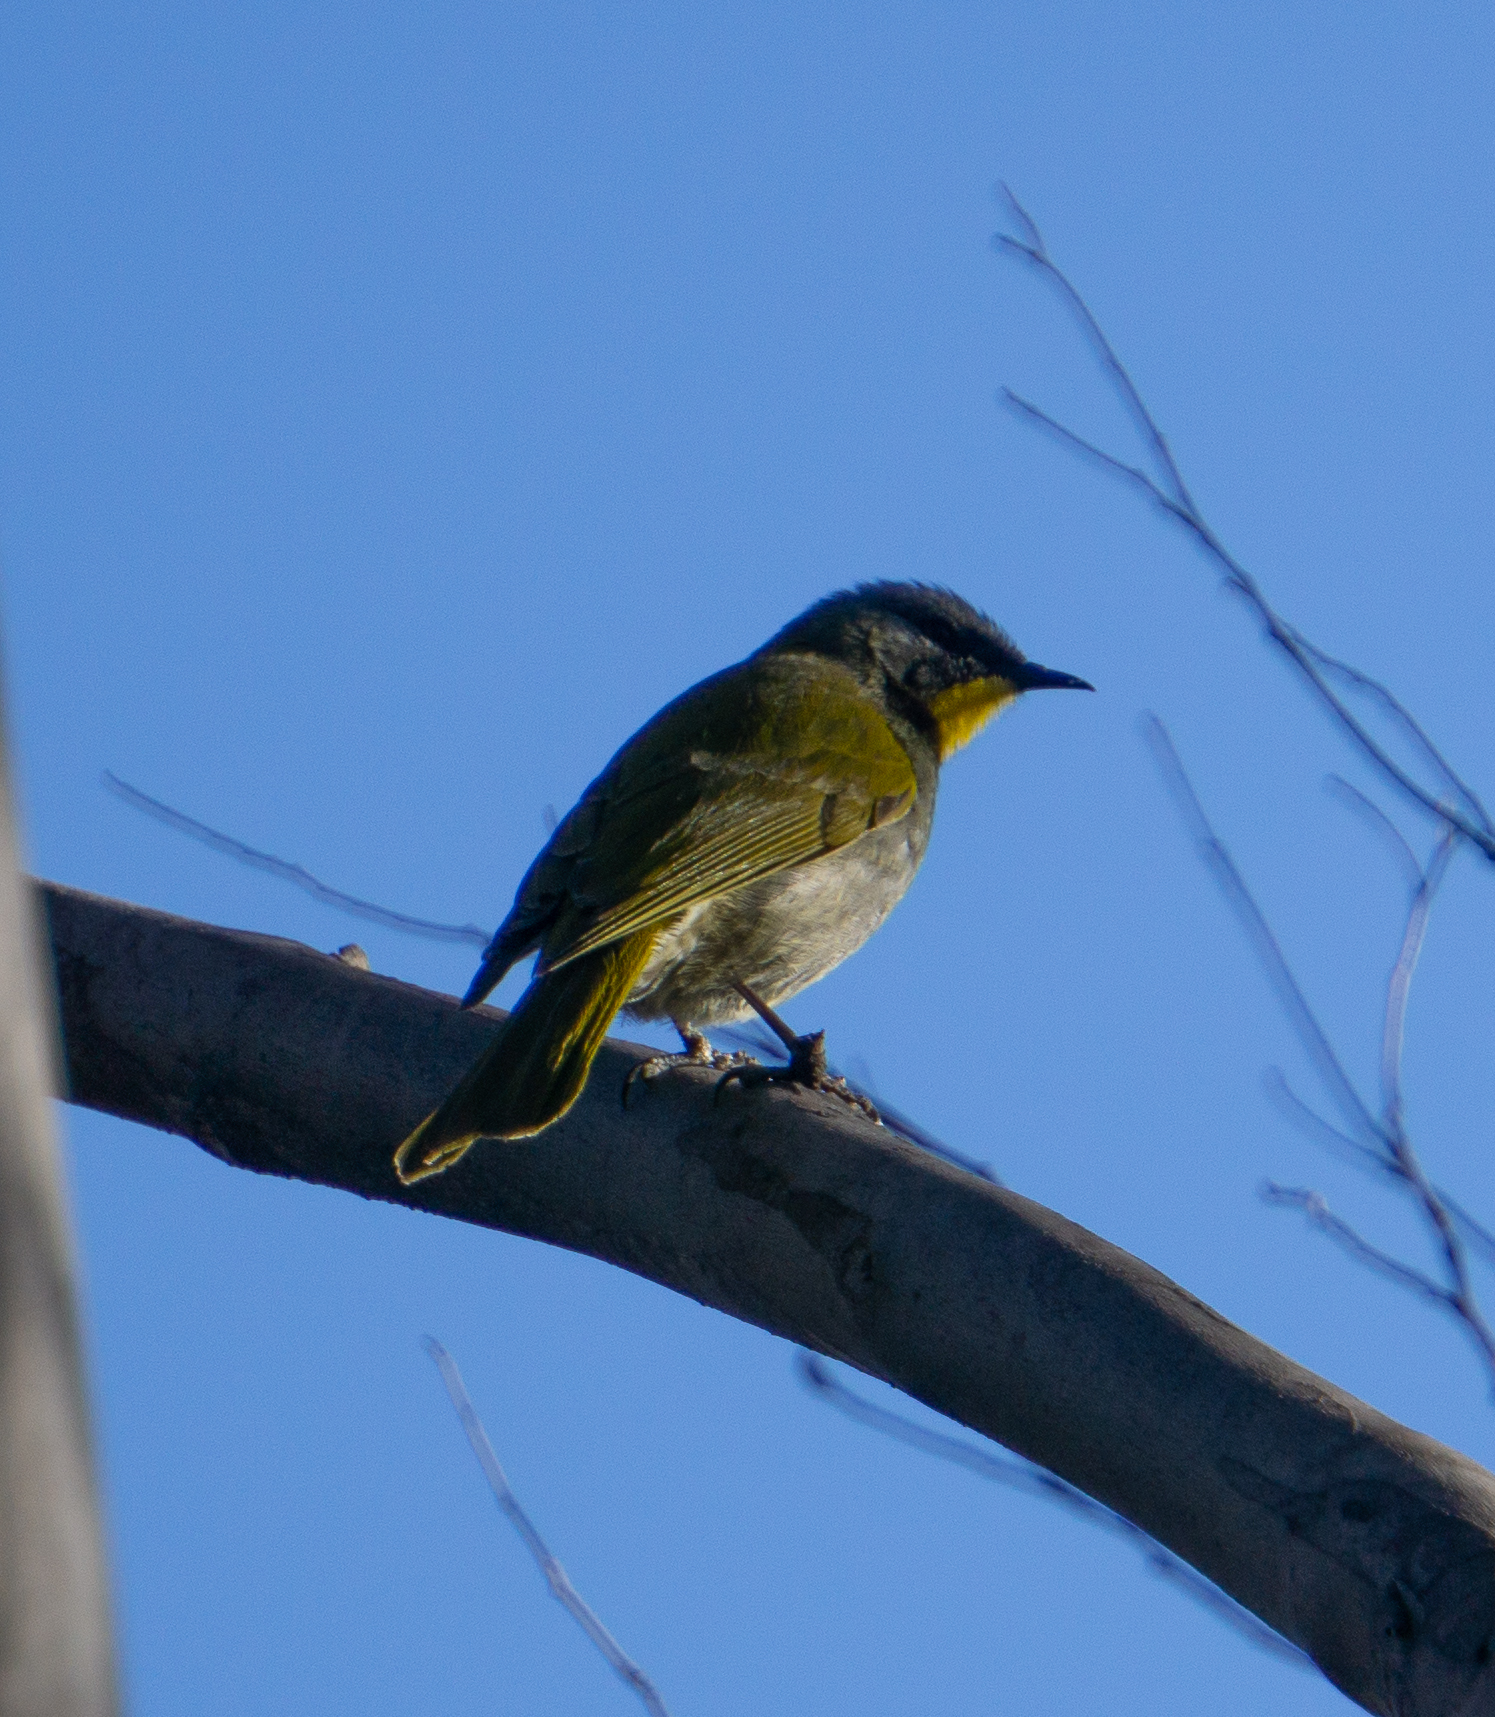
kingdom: Animalia
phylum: Chordata
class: Aves
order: Passeriformes
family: Meliphagidae
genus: Nesoptilotis
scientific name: Nesoptilotis flavicollis
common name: Yellow-throated honeyeater
